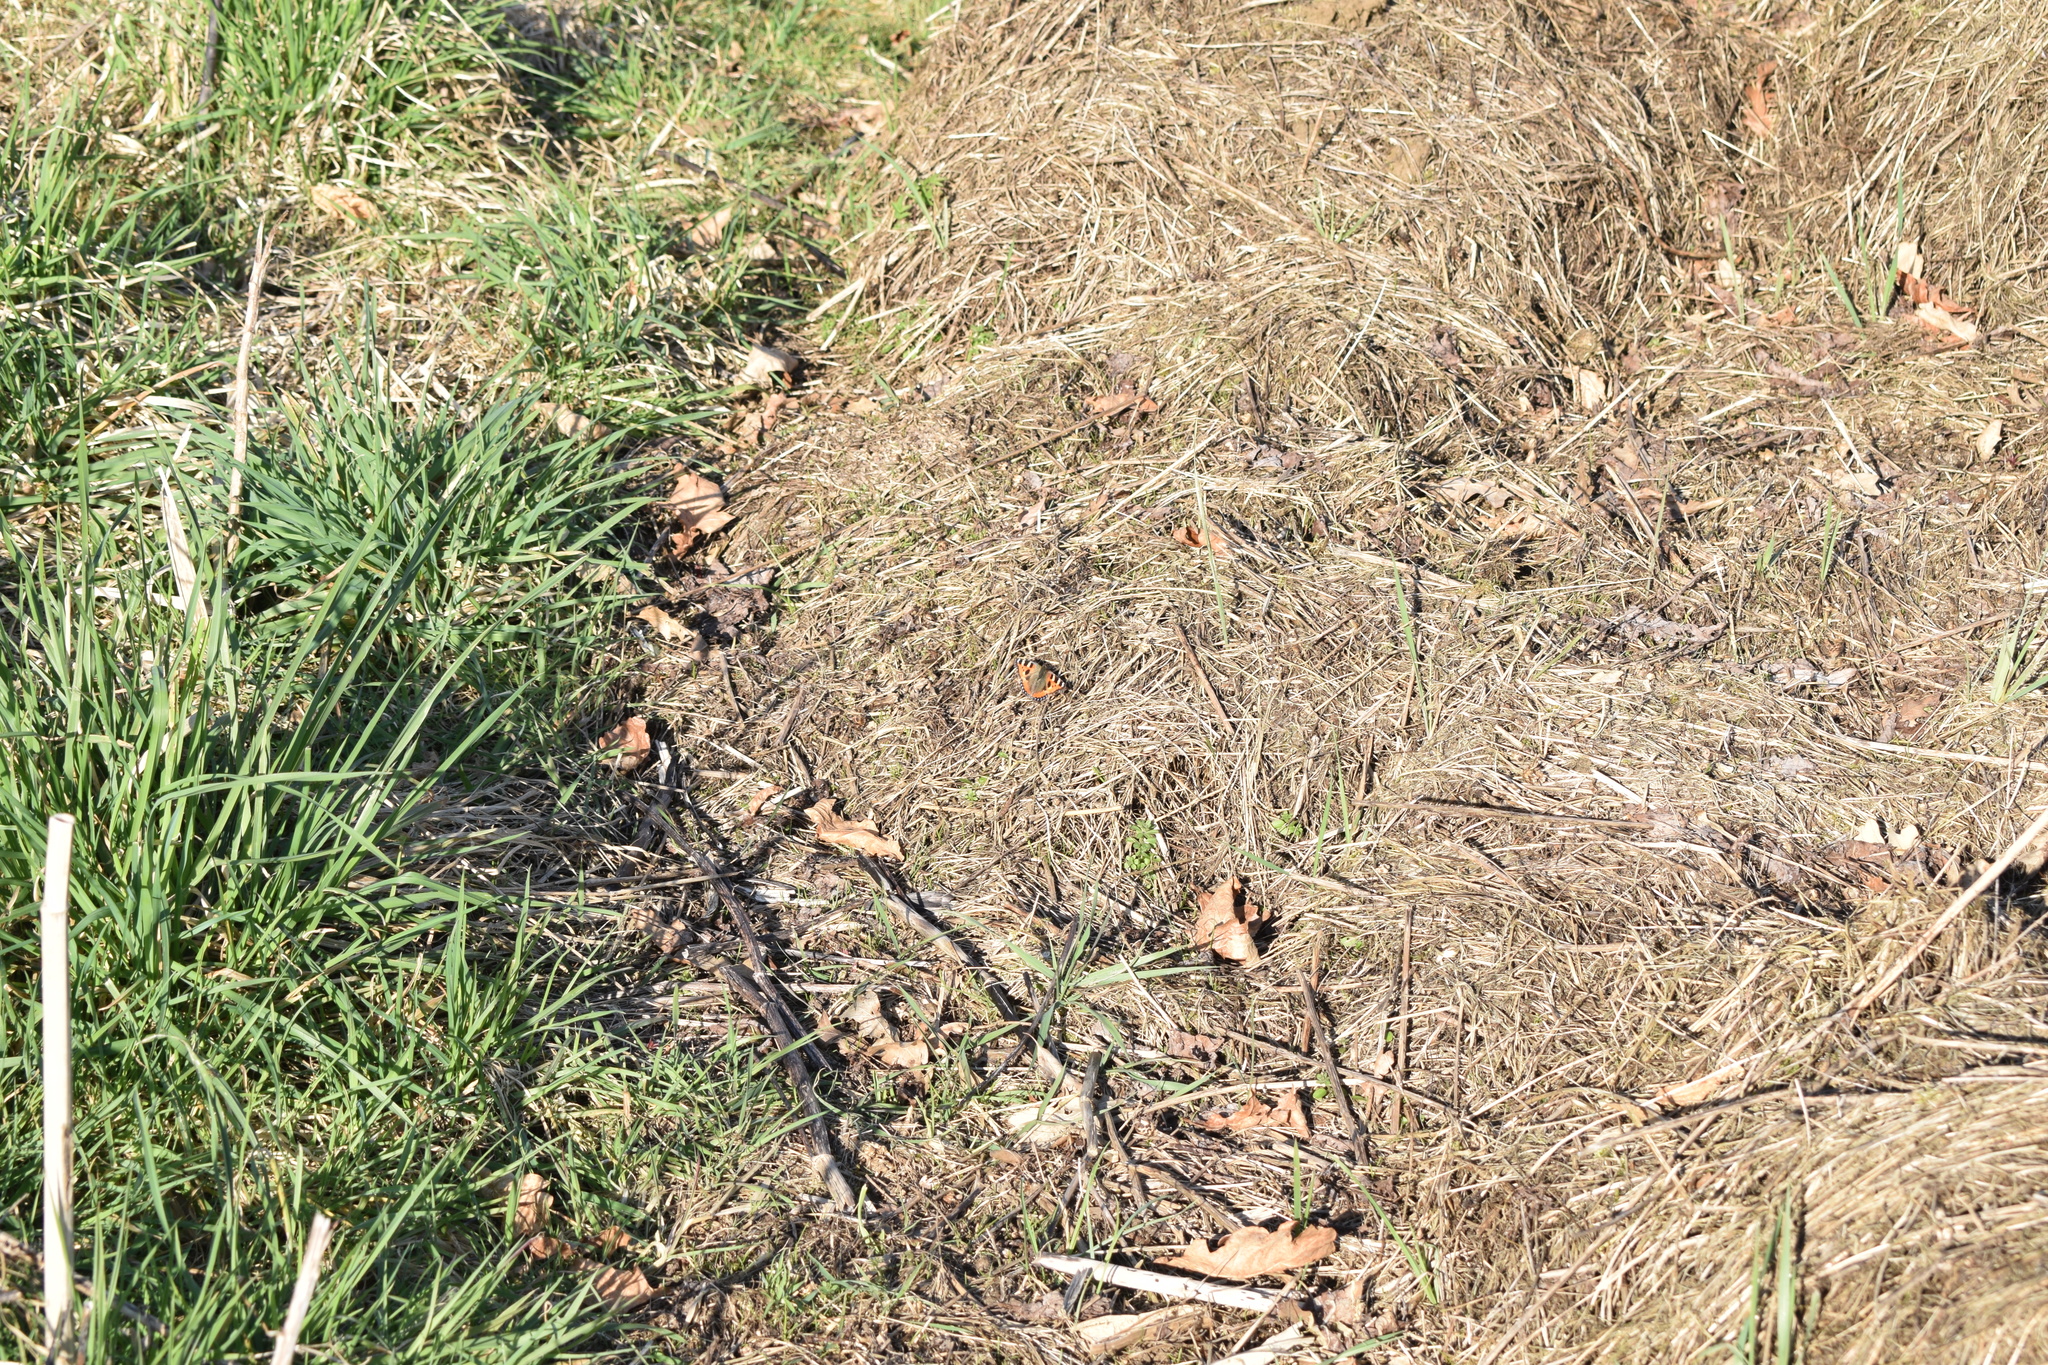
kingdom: Animalia
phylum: Arthropoda
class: Insecta
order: Lepidoptera
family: Nymphalidae
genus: Aglais
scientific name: Aglais urticae
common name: Small tortoiseshell
